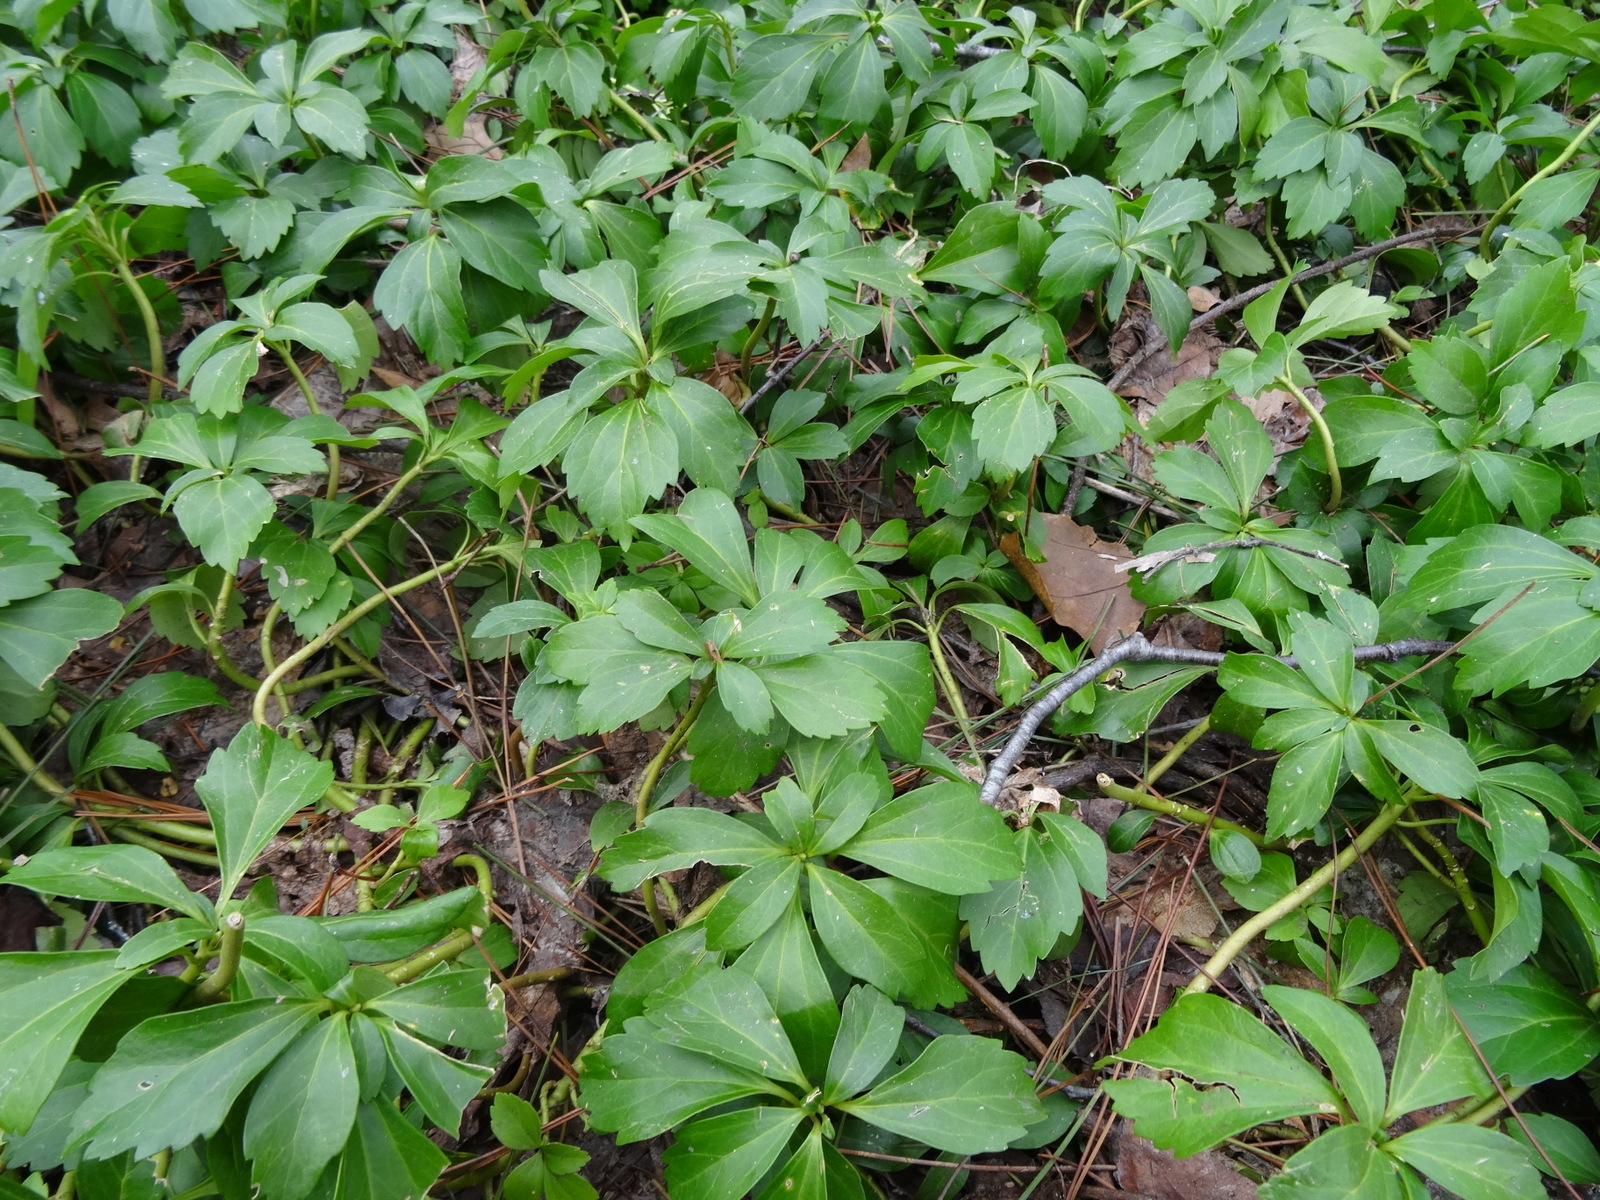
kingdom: Plantae
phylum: Tracheophyta
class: Magnoliopsida
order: Buxales
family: Buxaceae
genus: Pachysandra
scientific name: Pachysandra terminalis
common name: Japanese pachysandra
